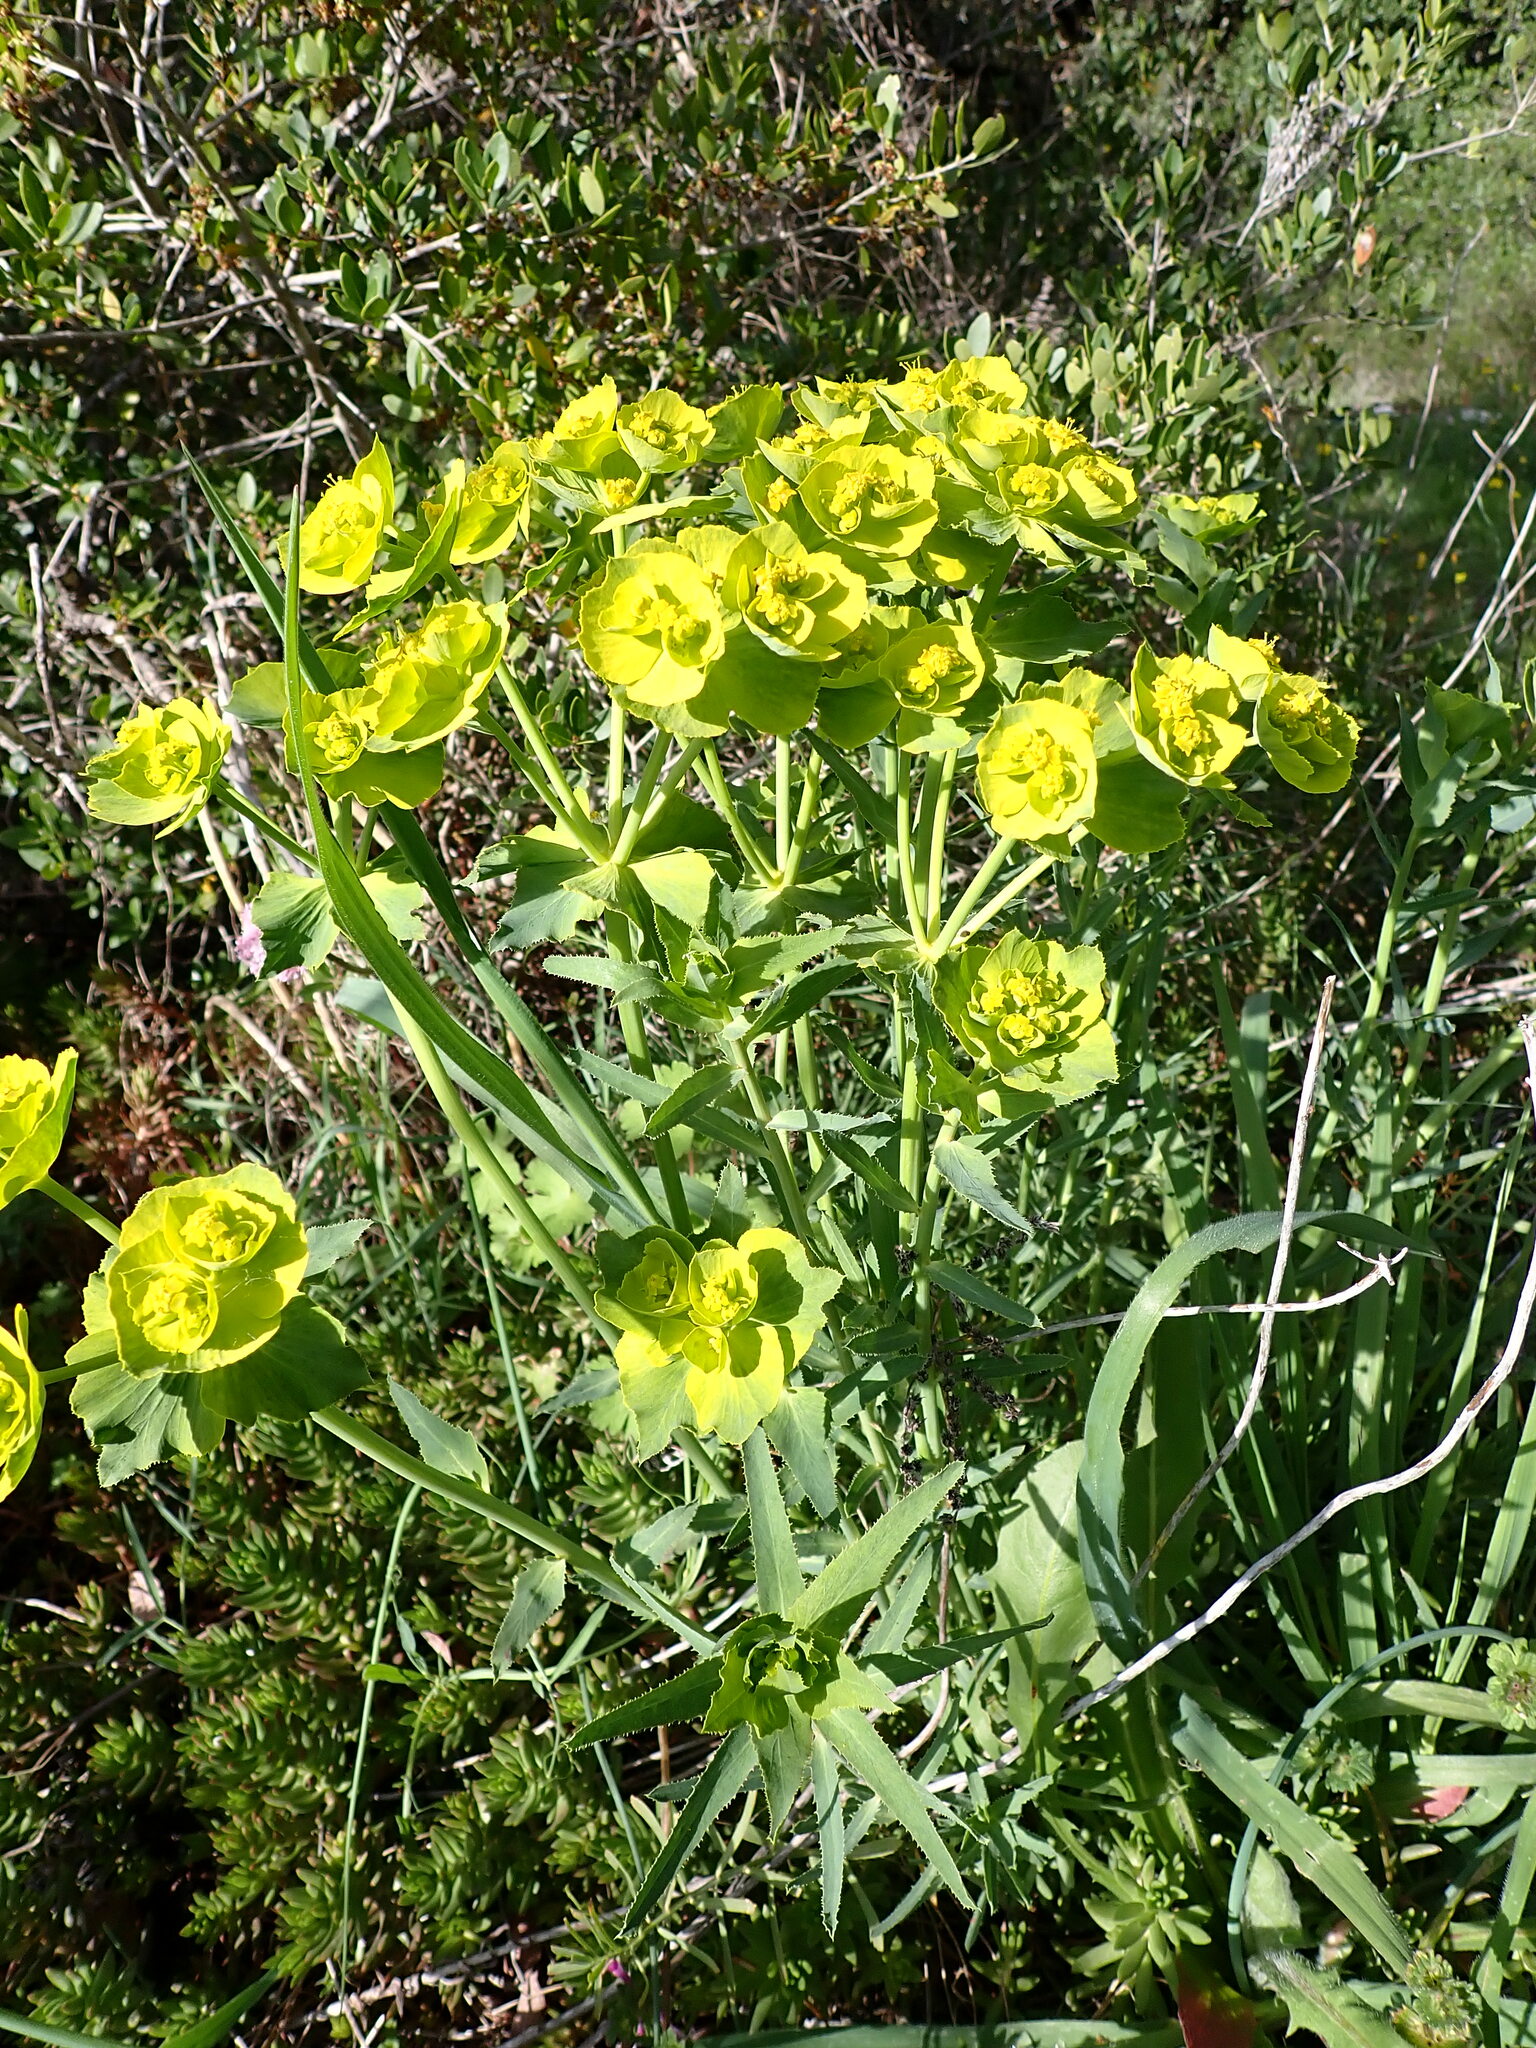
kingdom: Plantae
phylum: Tracheophyta
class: Magnoliopsida
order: Malpighiales
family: Euphorbiaceae
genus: Euphorbia
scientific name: Euphorbia serrata
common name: Serrate spurge
